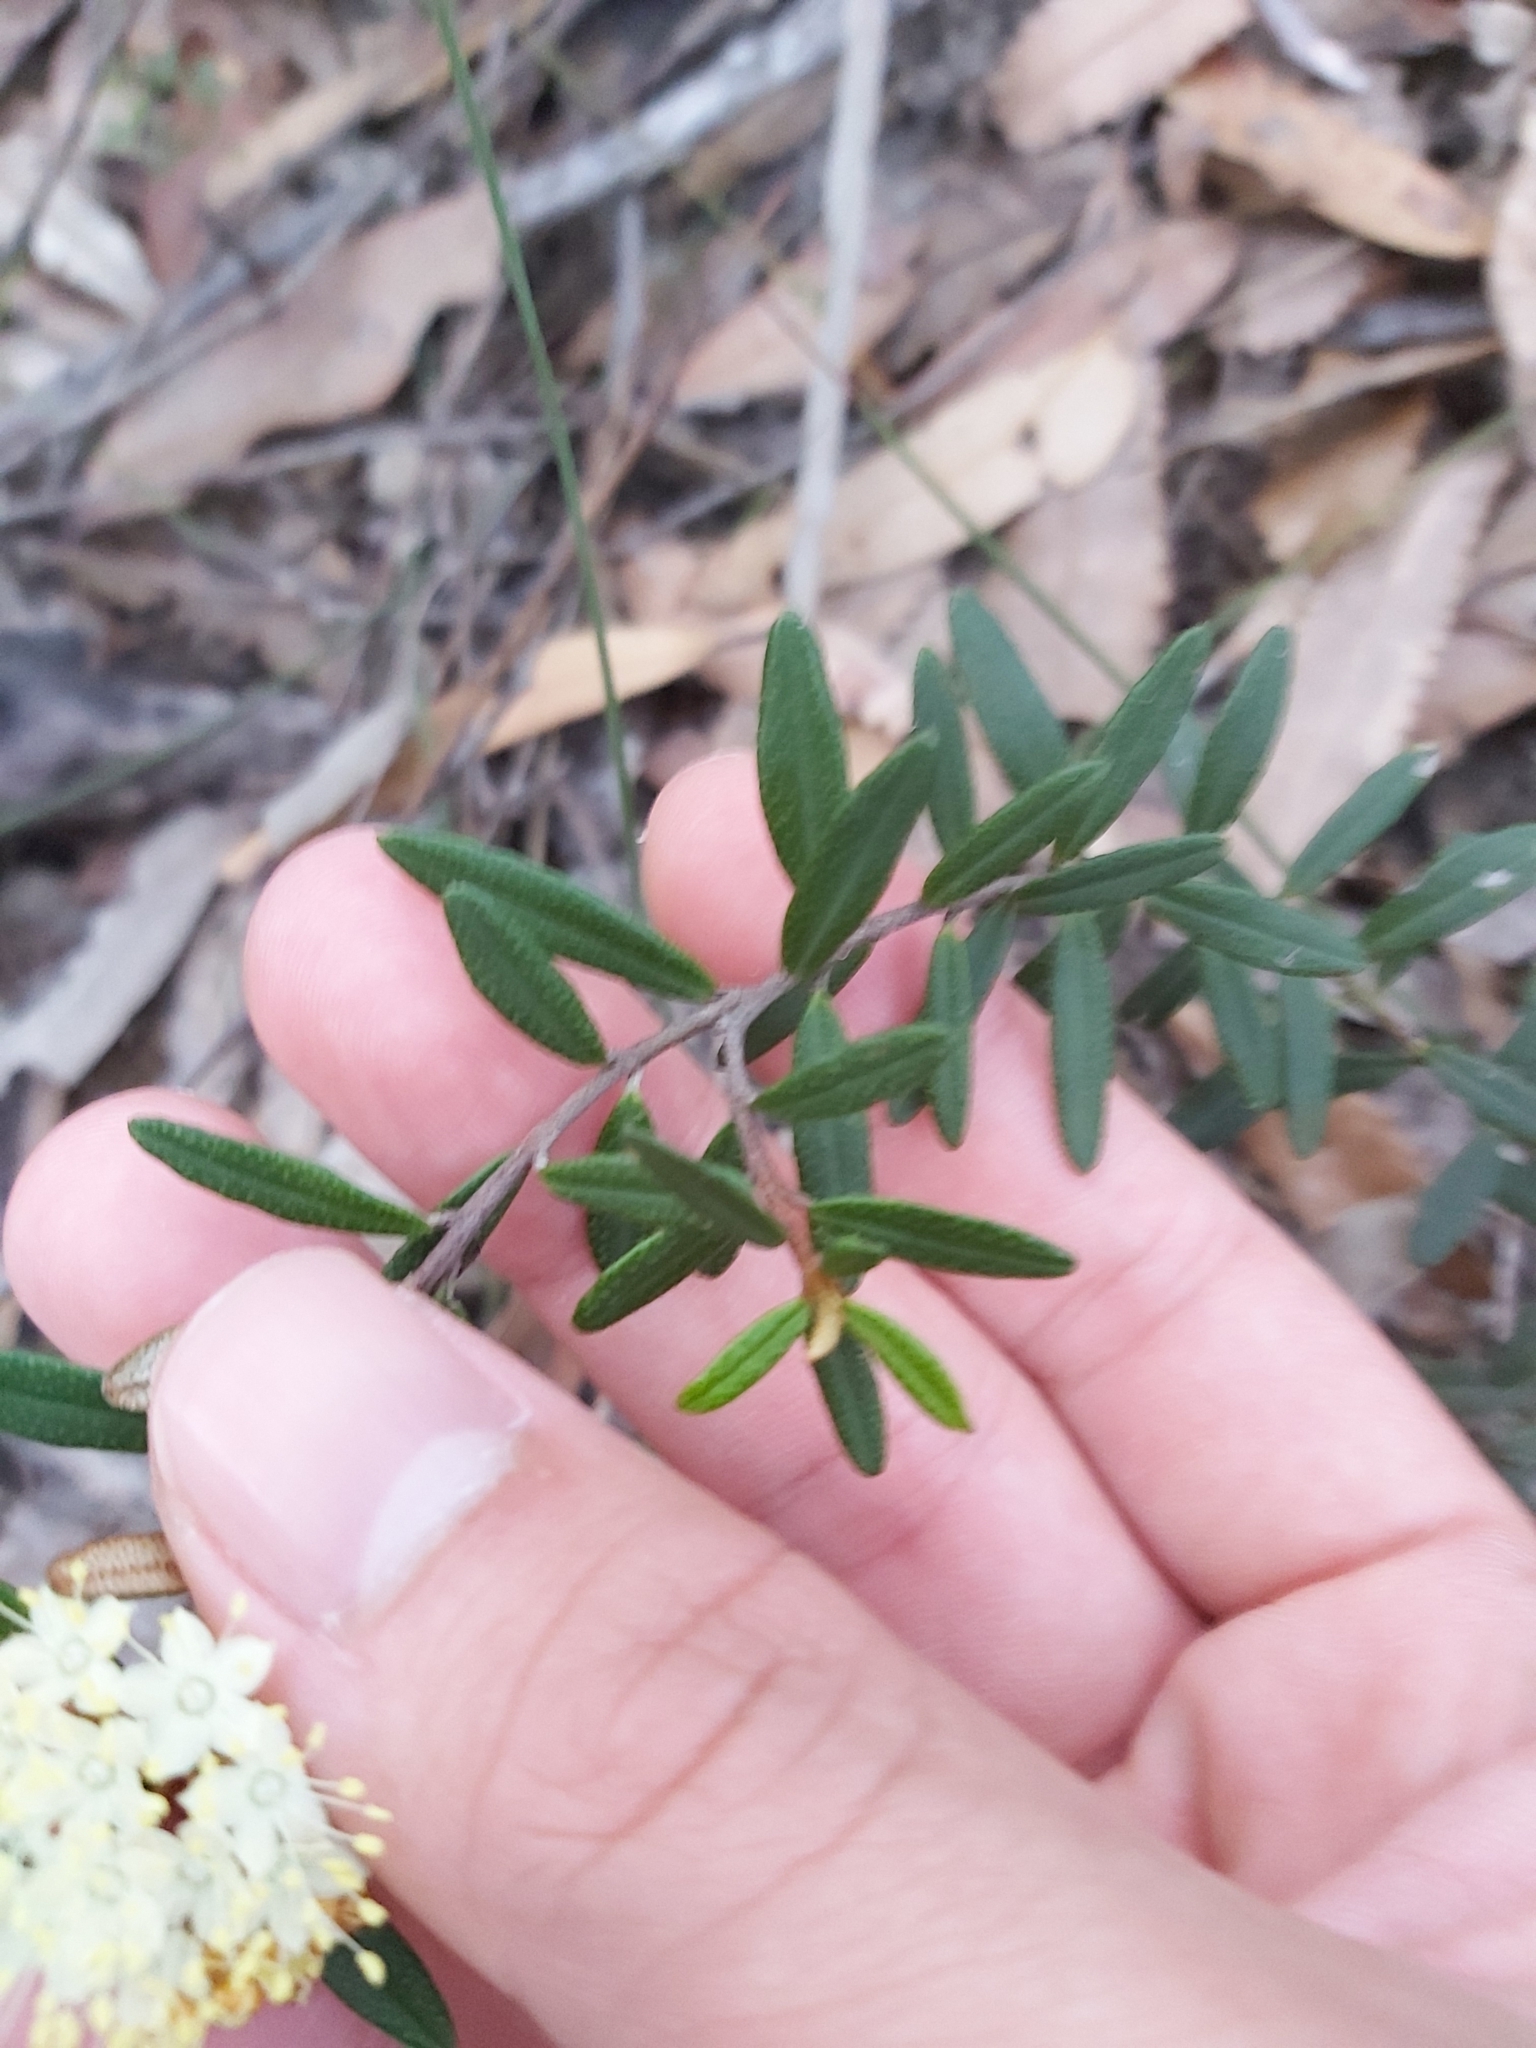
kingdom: Plantae
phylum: Tracheophyta
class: Magnoliopsida
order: Sapindales
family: Rutaceae
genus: Phebalium
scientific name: Phebalium squamulosum
